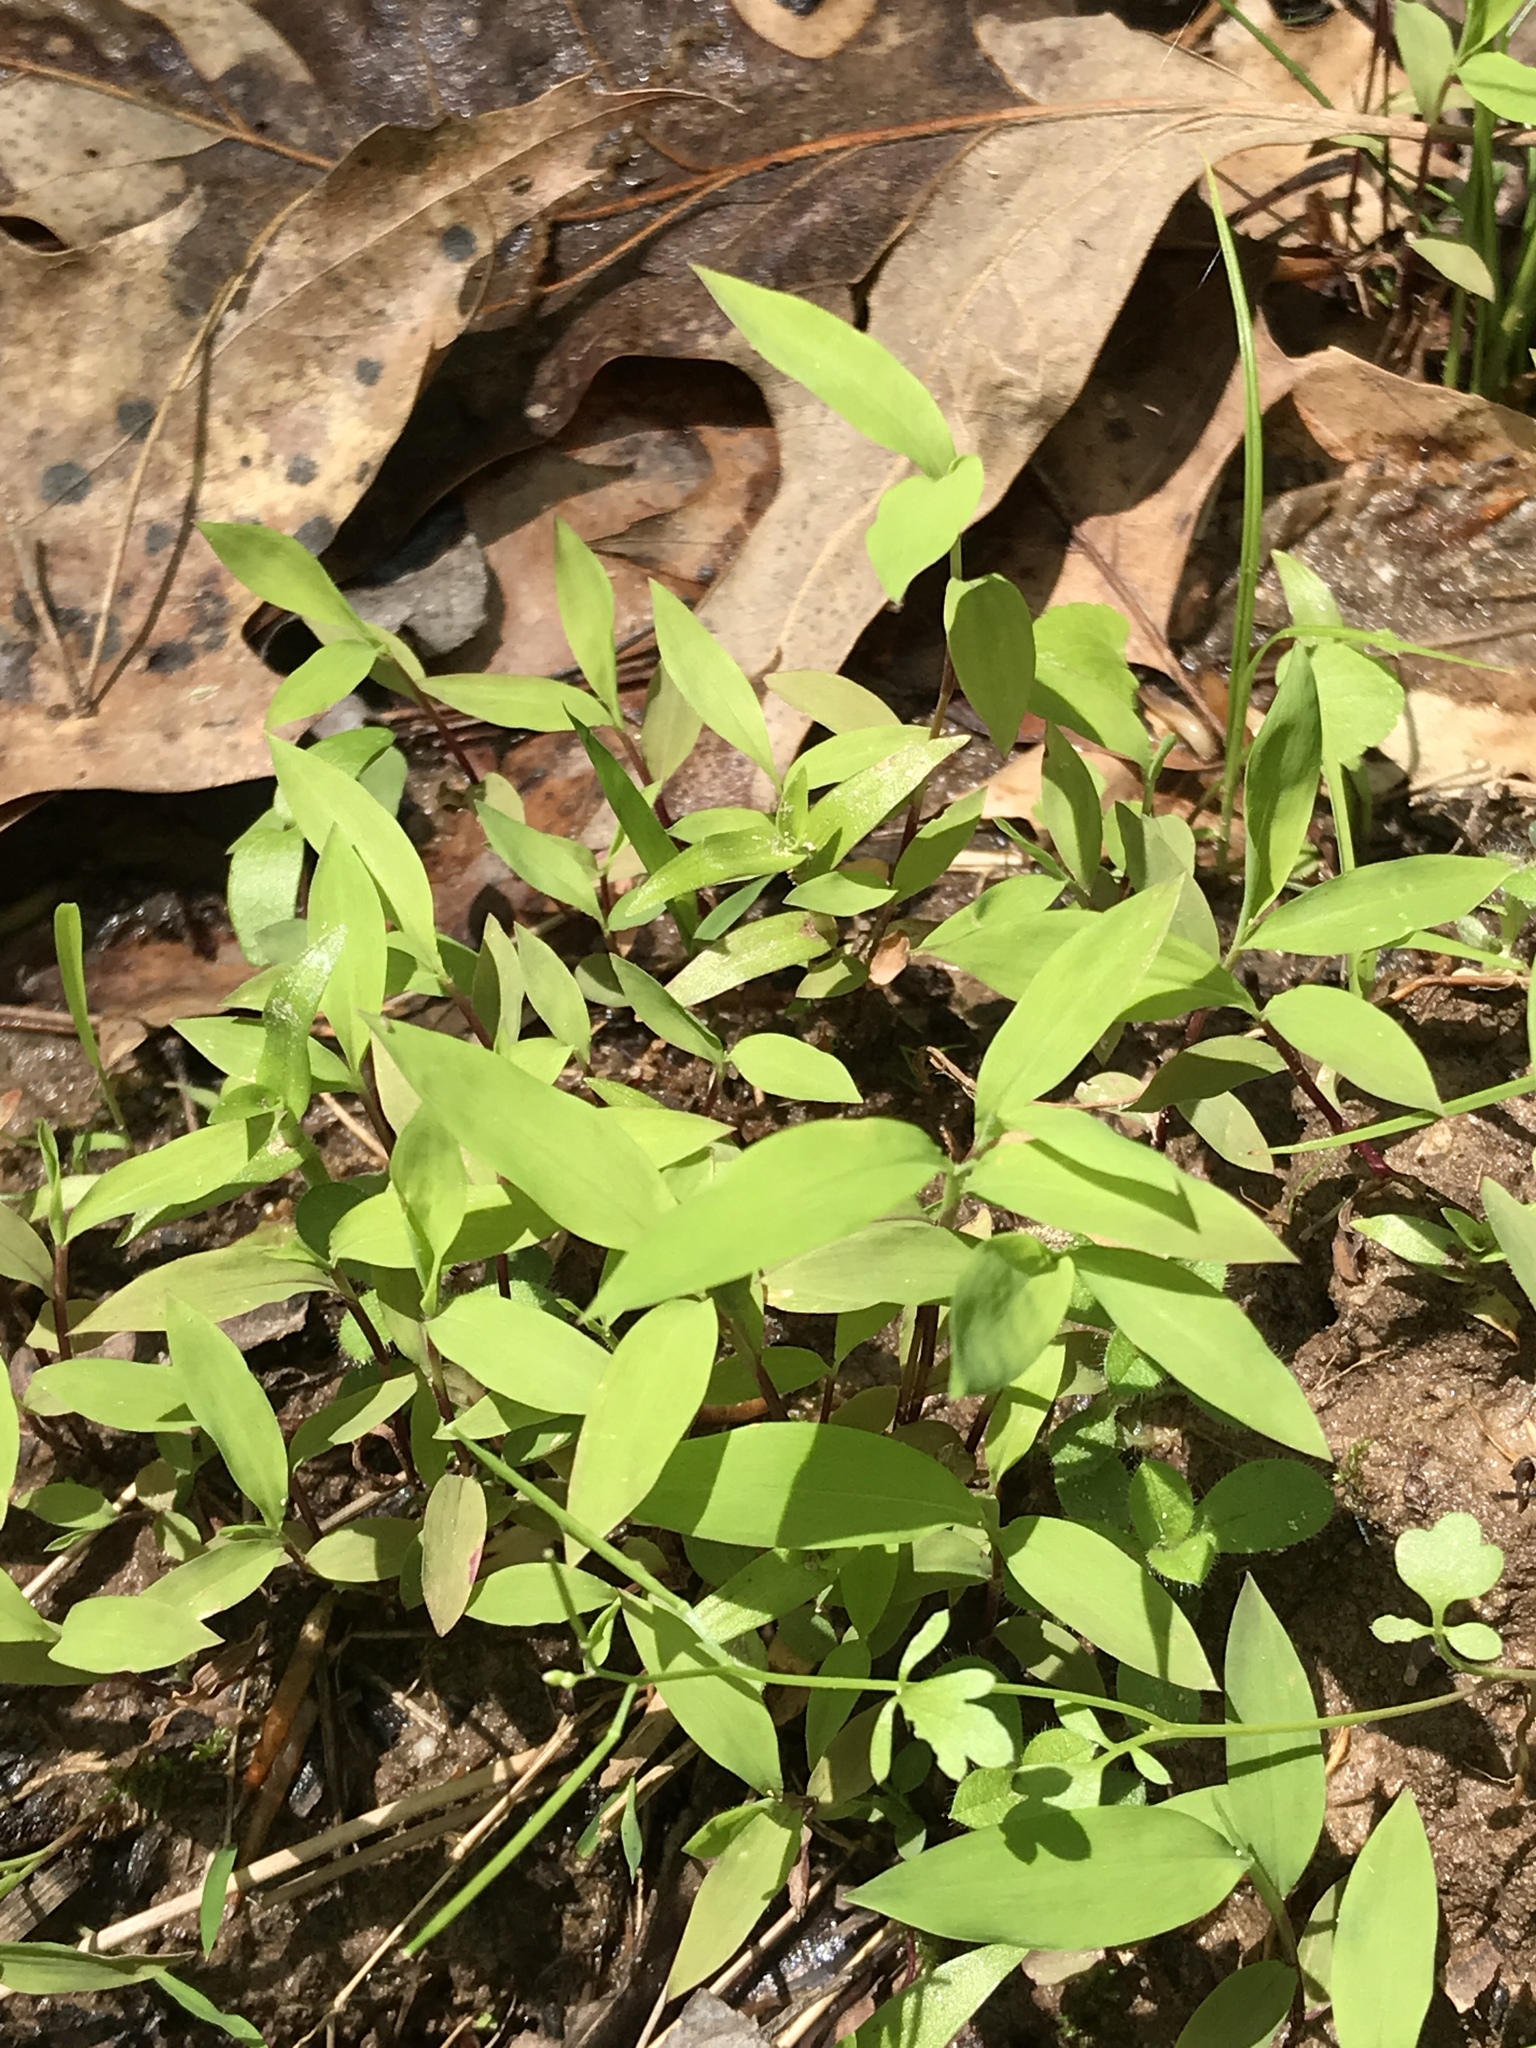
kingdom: Plantae
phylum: Tracheophyta
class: Liliopsida
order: Poales
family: Poaceae
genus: Microstegium
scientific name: Microstegium vimineum
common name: Japanese stiltgrass
